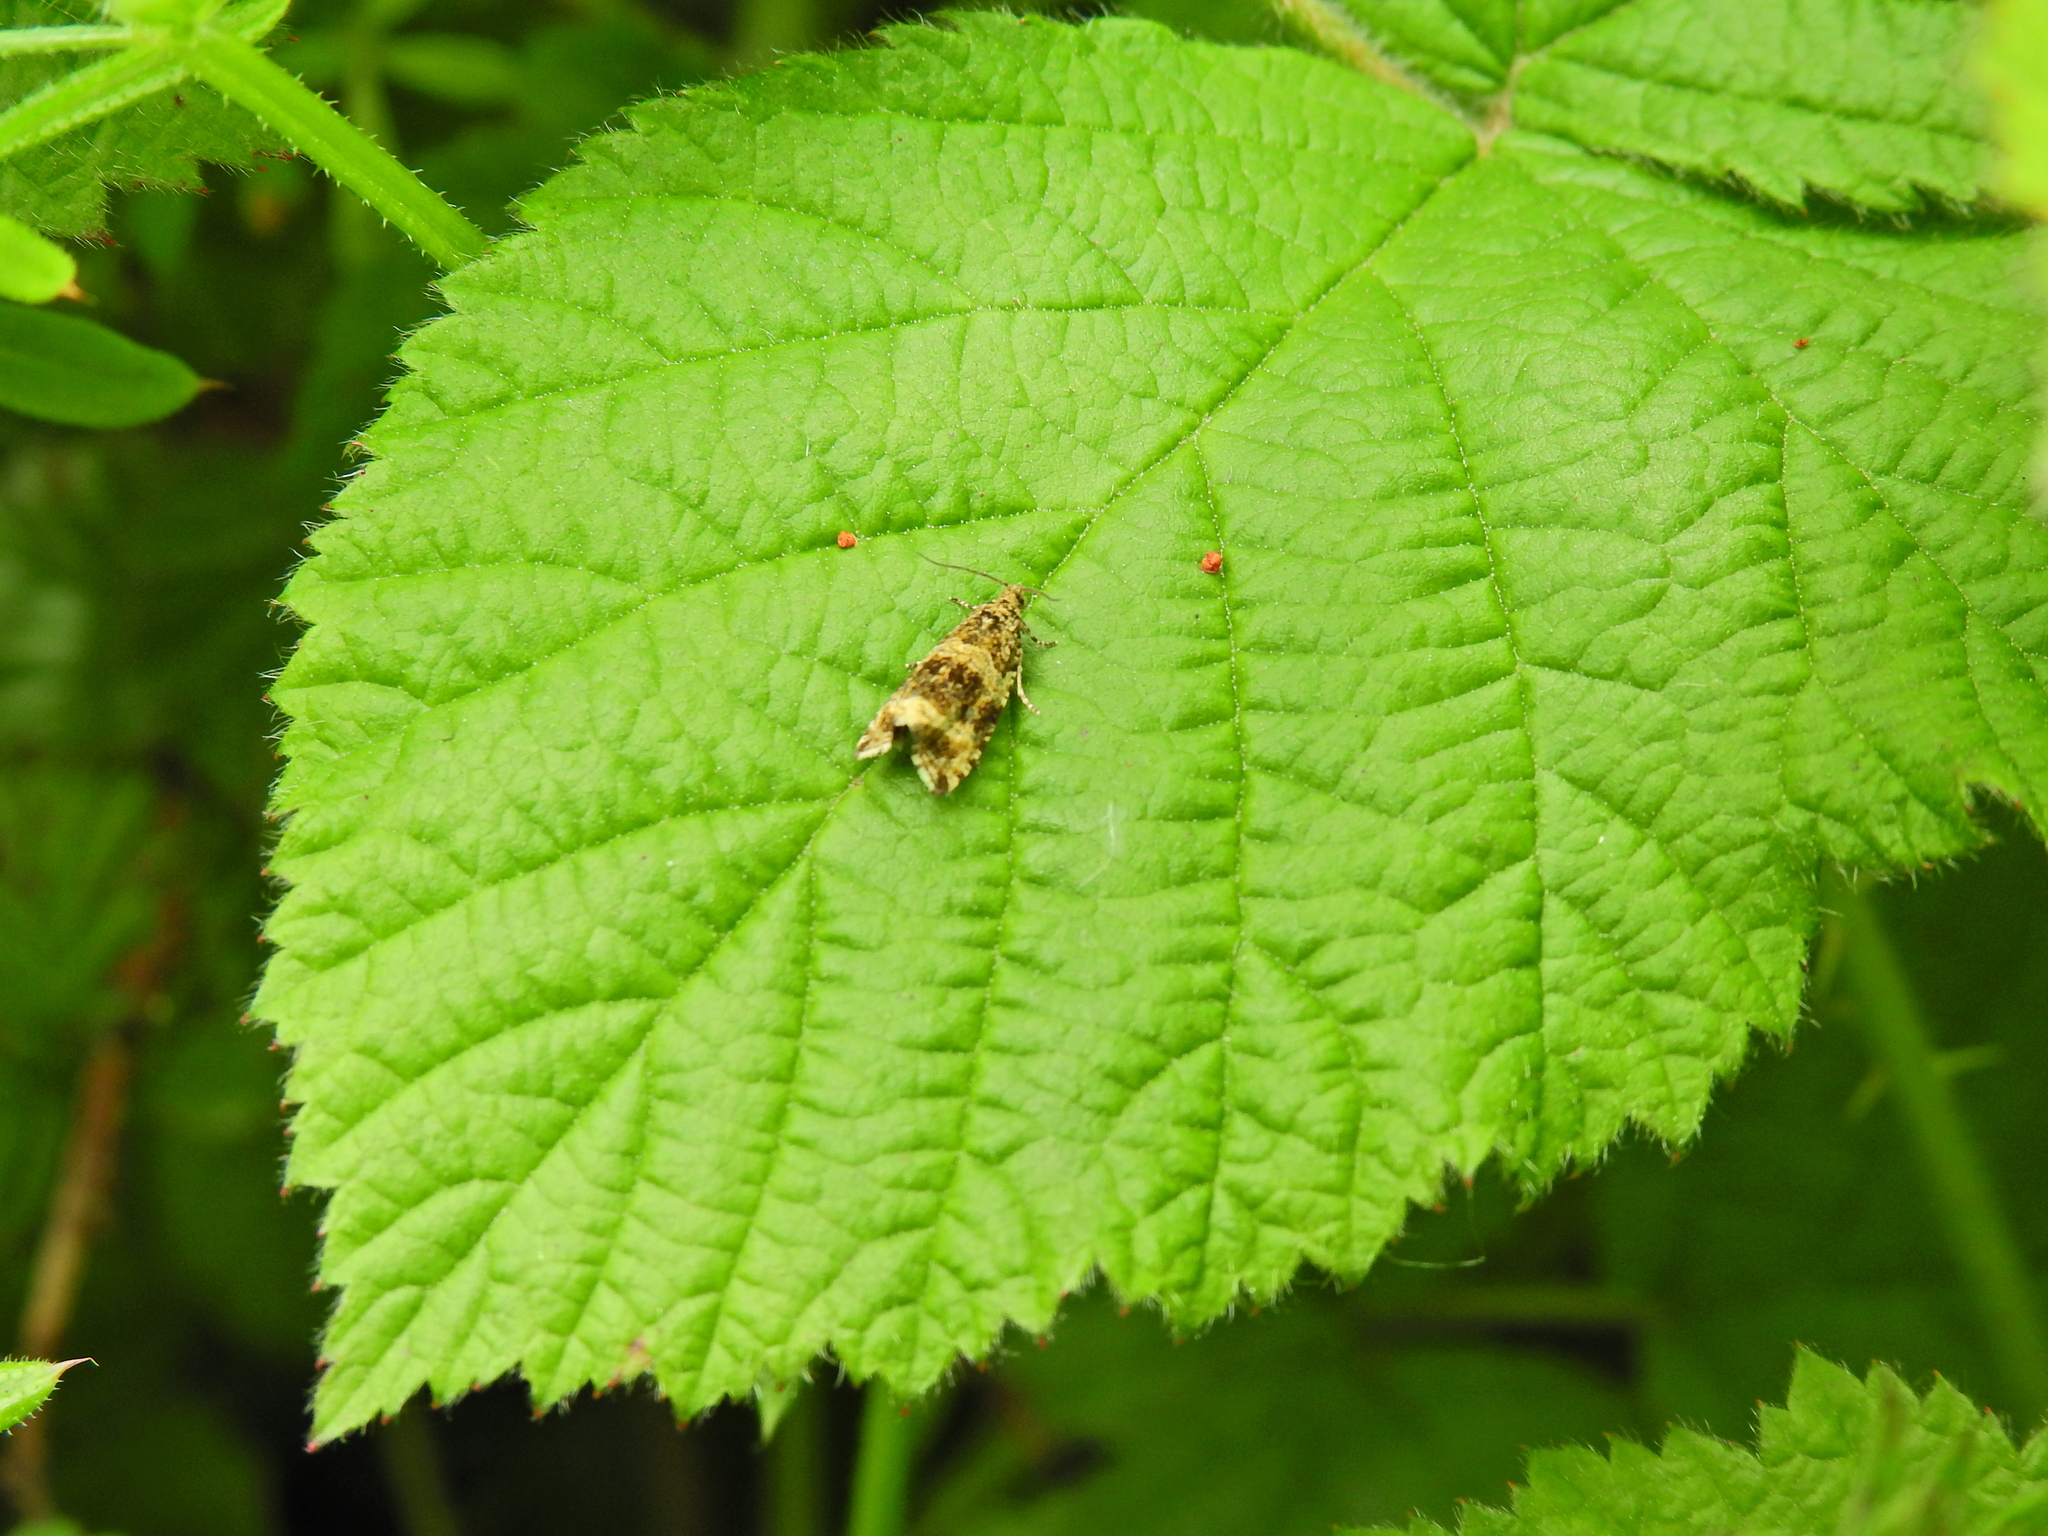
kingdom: Animalia
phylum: Arthropoda
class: Insecta
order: Lepidoptera
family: Tortricidae
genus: Syricoris
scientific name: Syricoris lacunana
